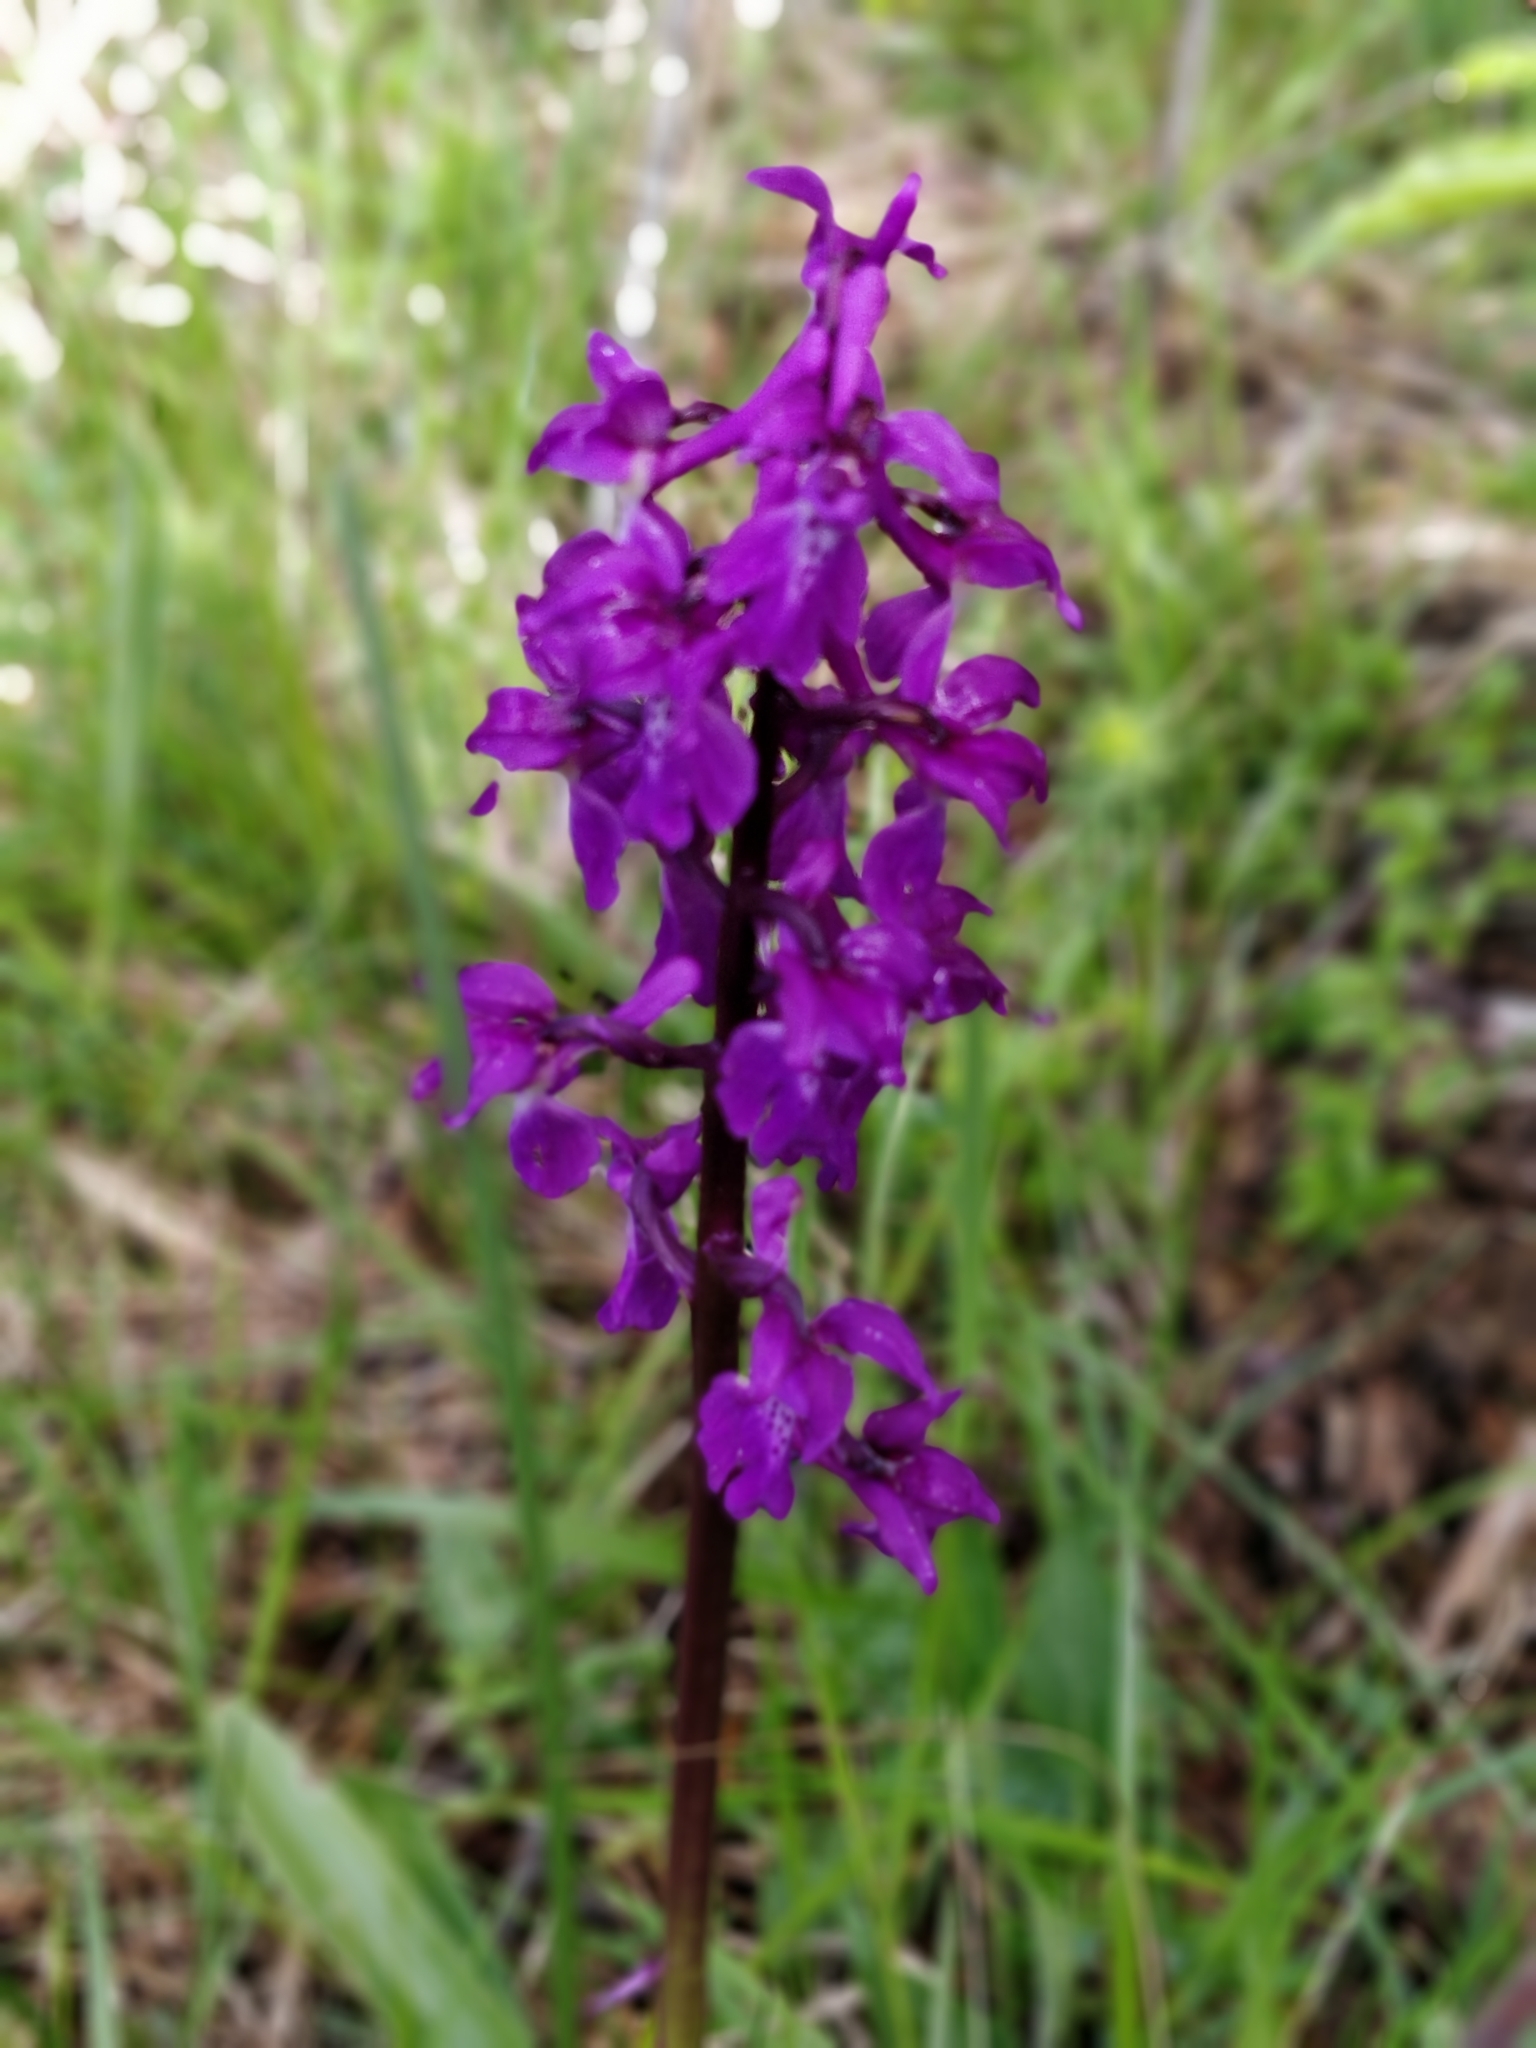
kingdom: Plantae
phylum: Tracheophyta
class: Liliopsida
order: Asparagales
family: Orchidaceae
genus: Orchis
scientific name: Orchis mascula
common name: Early-purple orchid
